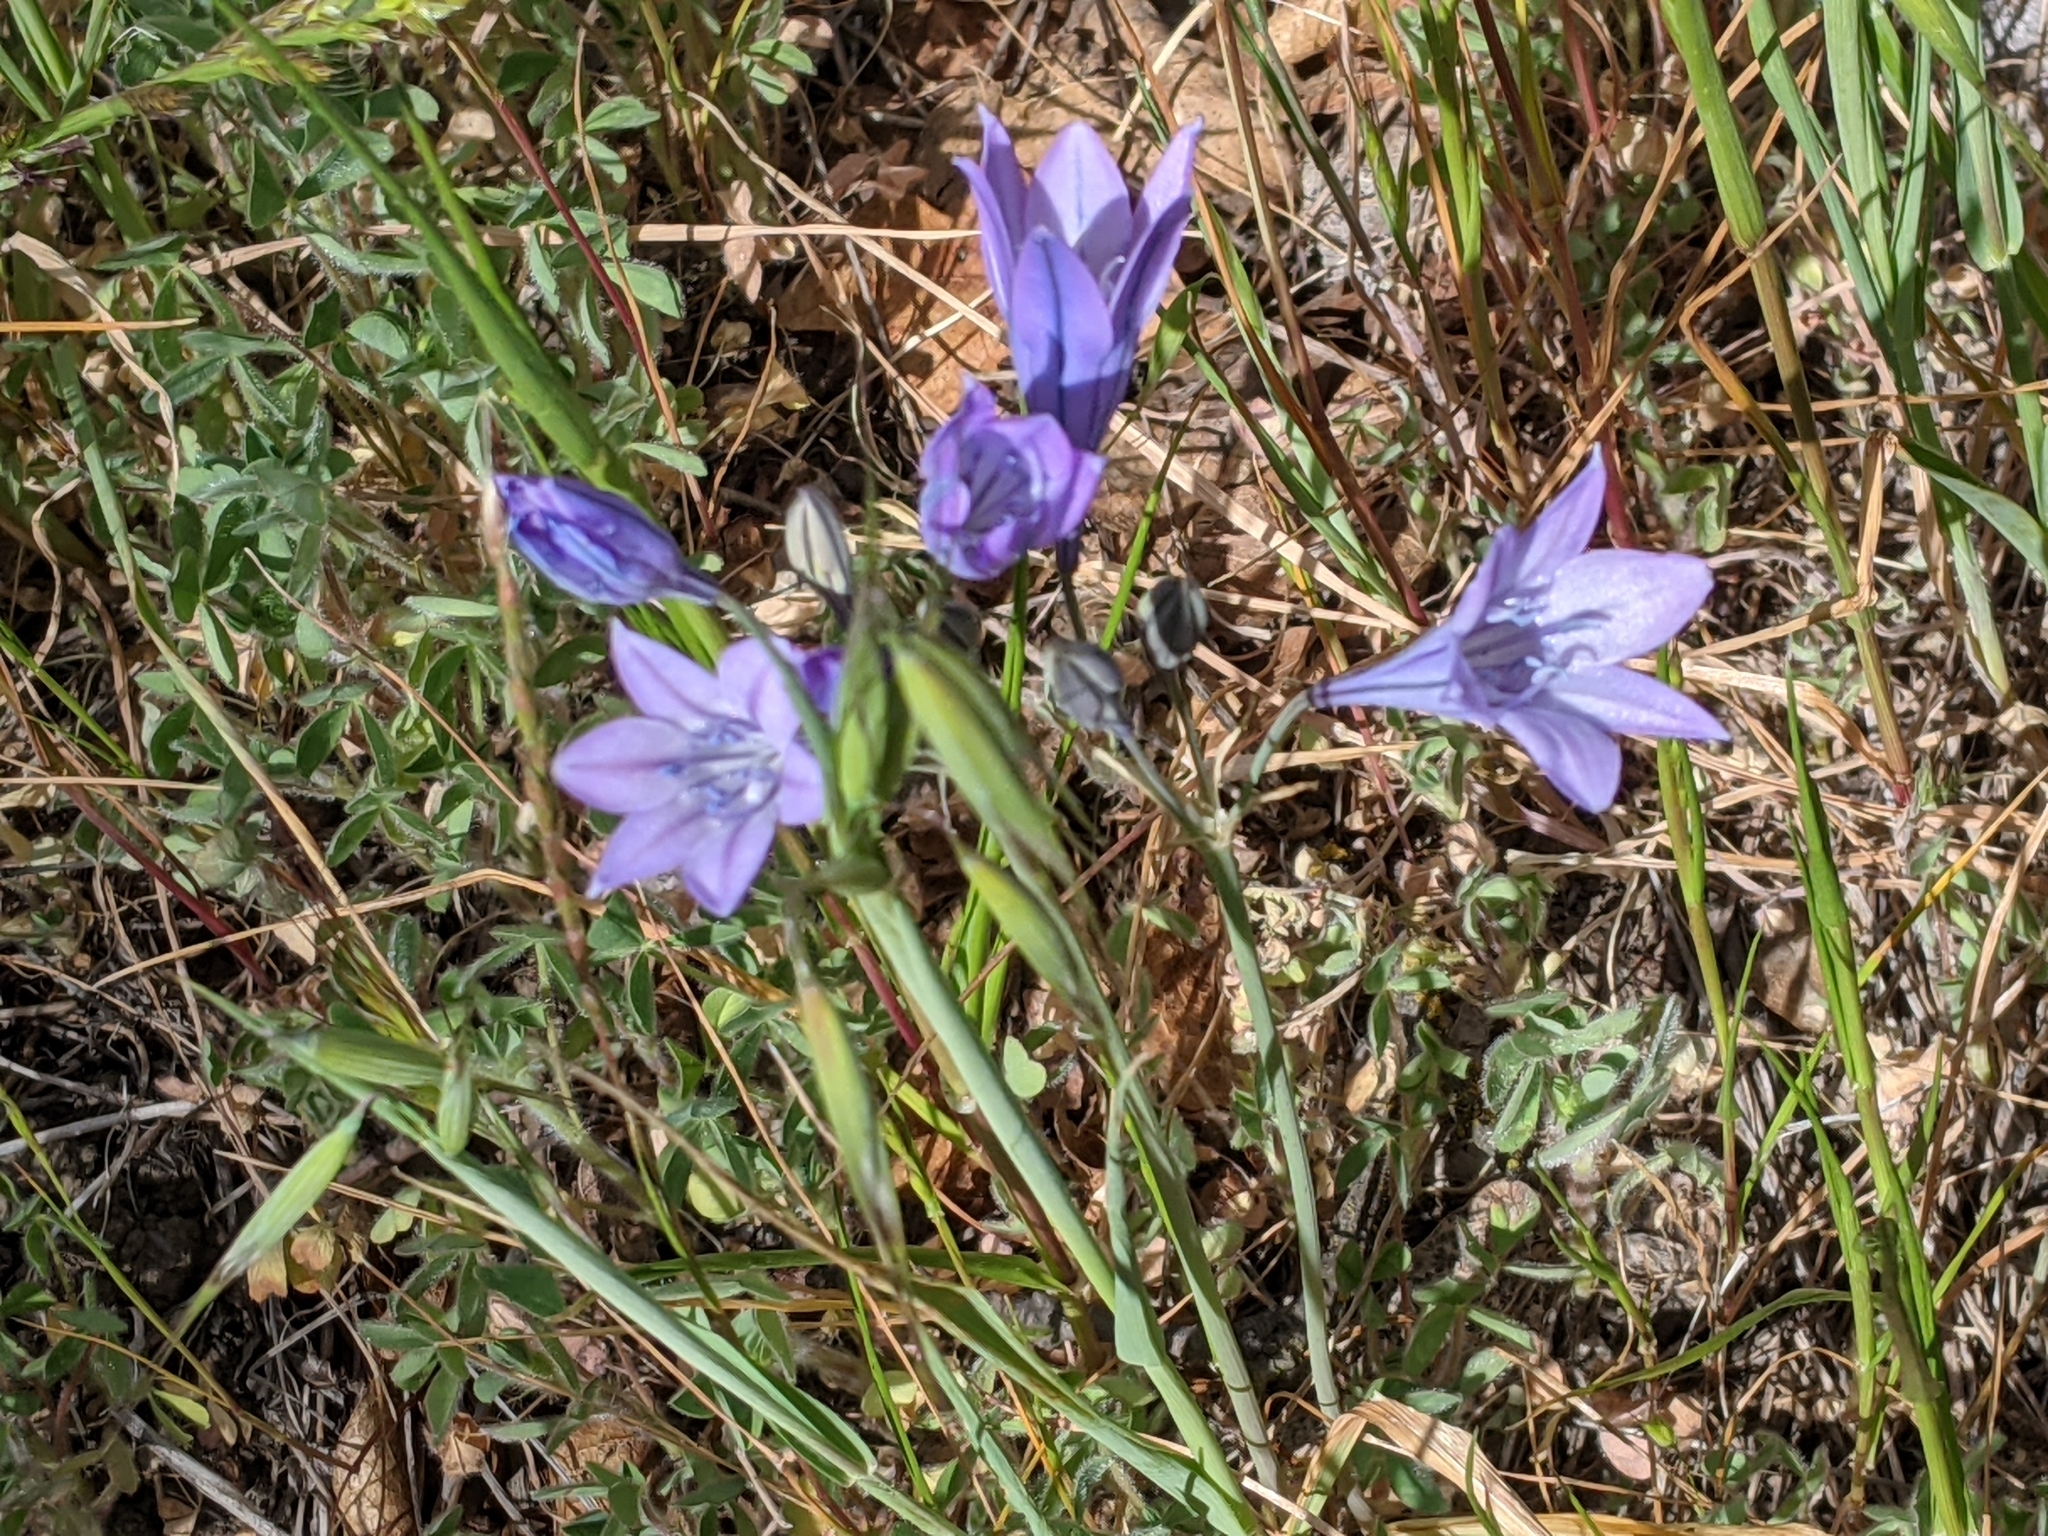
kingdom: Plantae
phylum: Tracheophyta
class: Liliopsida
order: Asparagales
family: Asparagaceae
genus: Triteleia
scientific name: Triteleia laxa
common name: Triplet-lily
